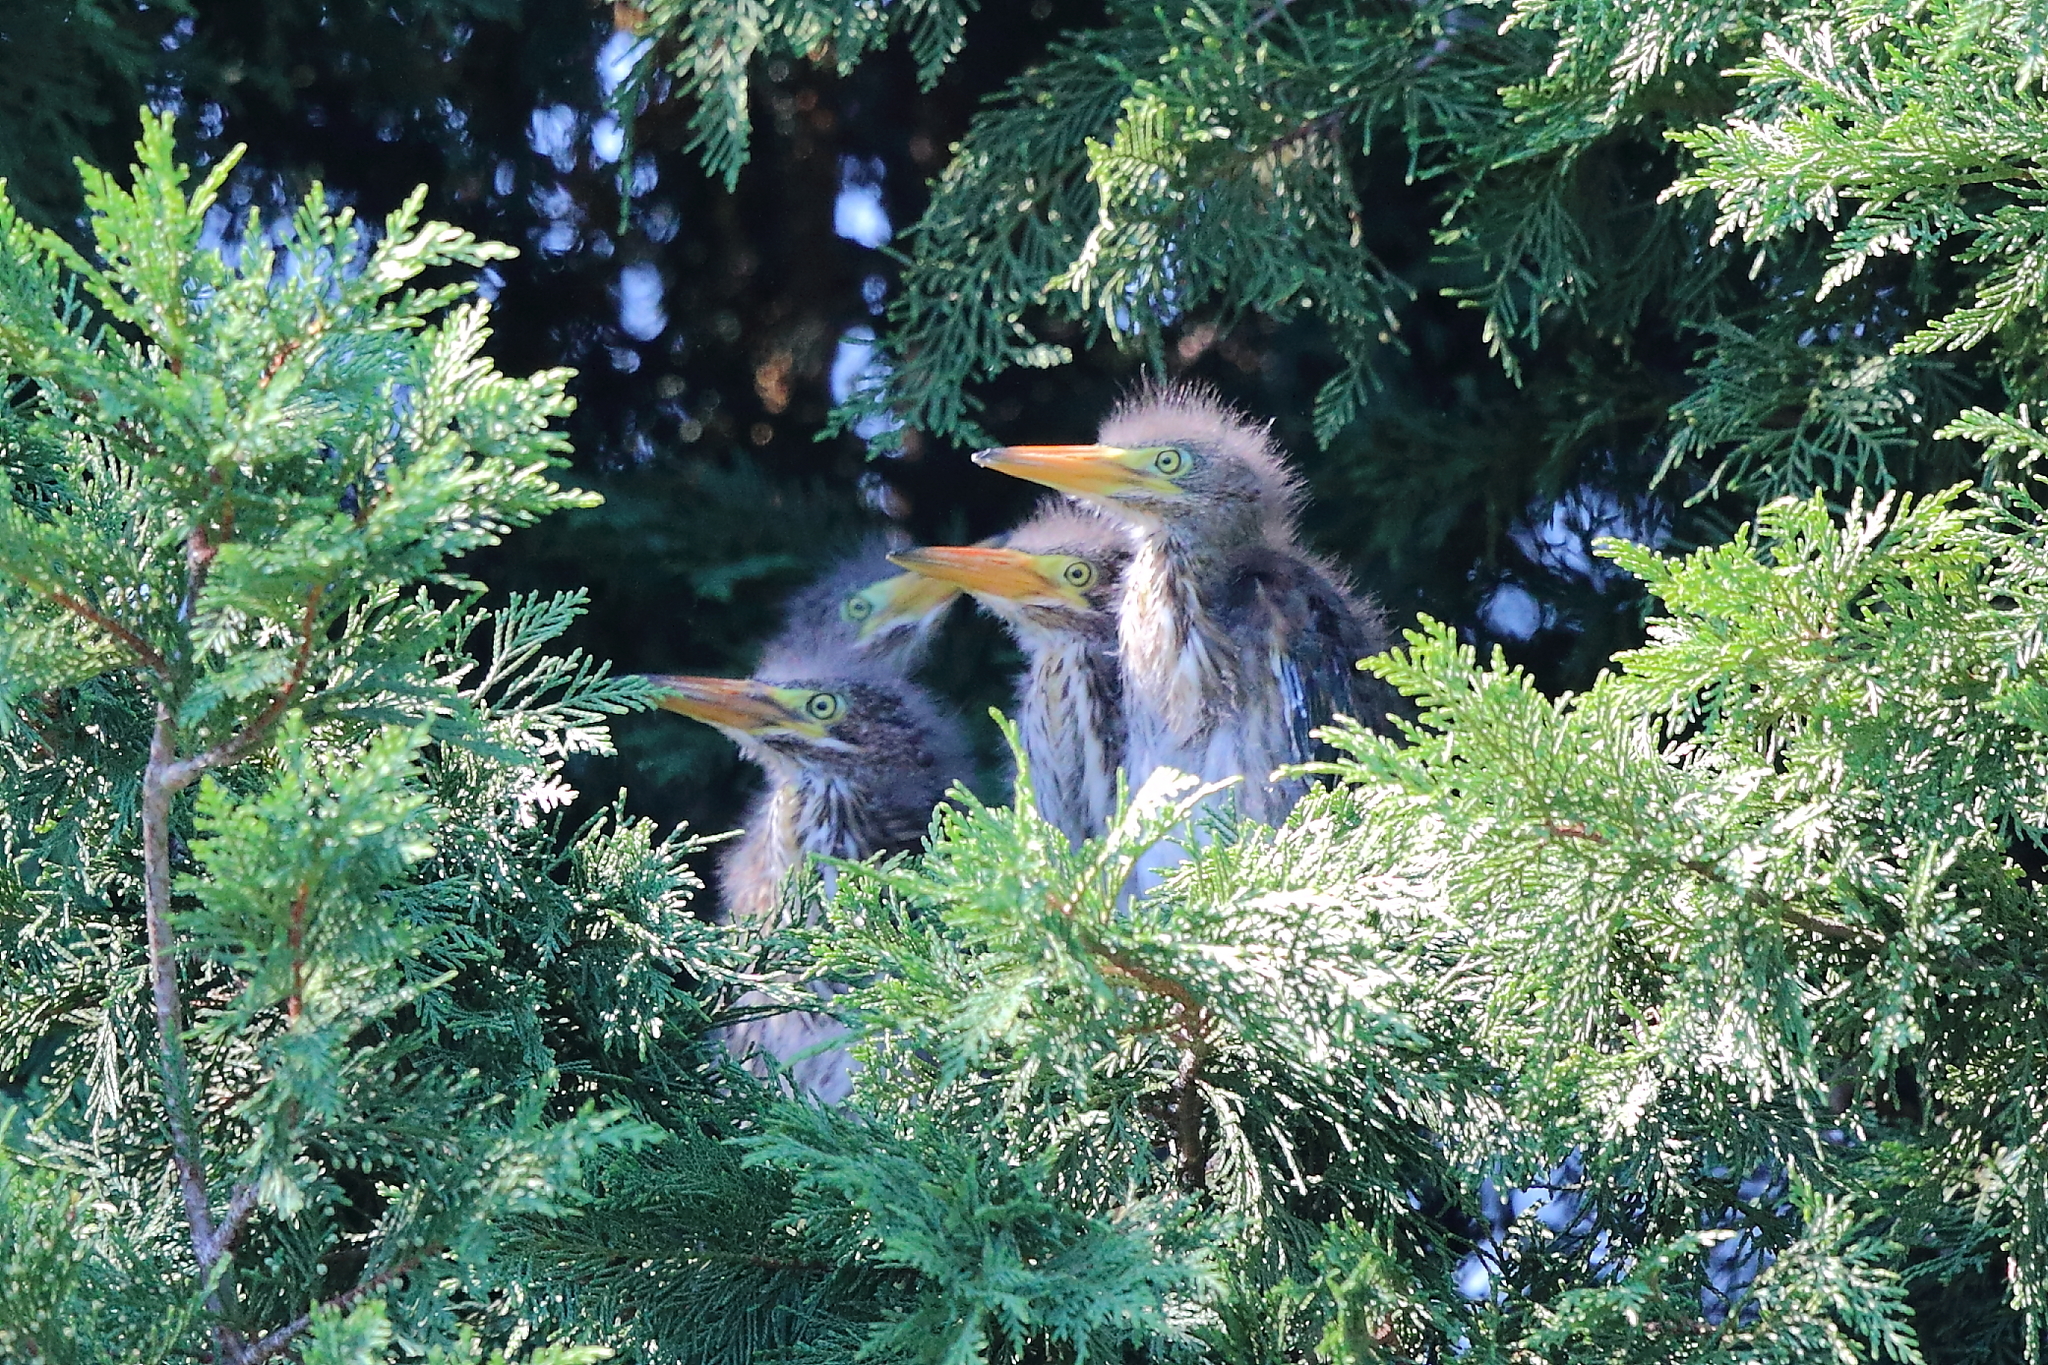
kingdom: Animalia
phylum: Chordata
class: Aves
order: Pelecaniformes
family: Ardeidae
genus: Butorides
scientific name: Butorides virescens
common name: Green heron
